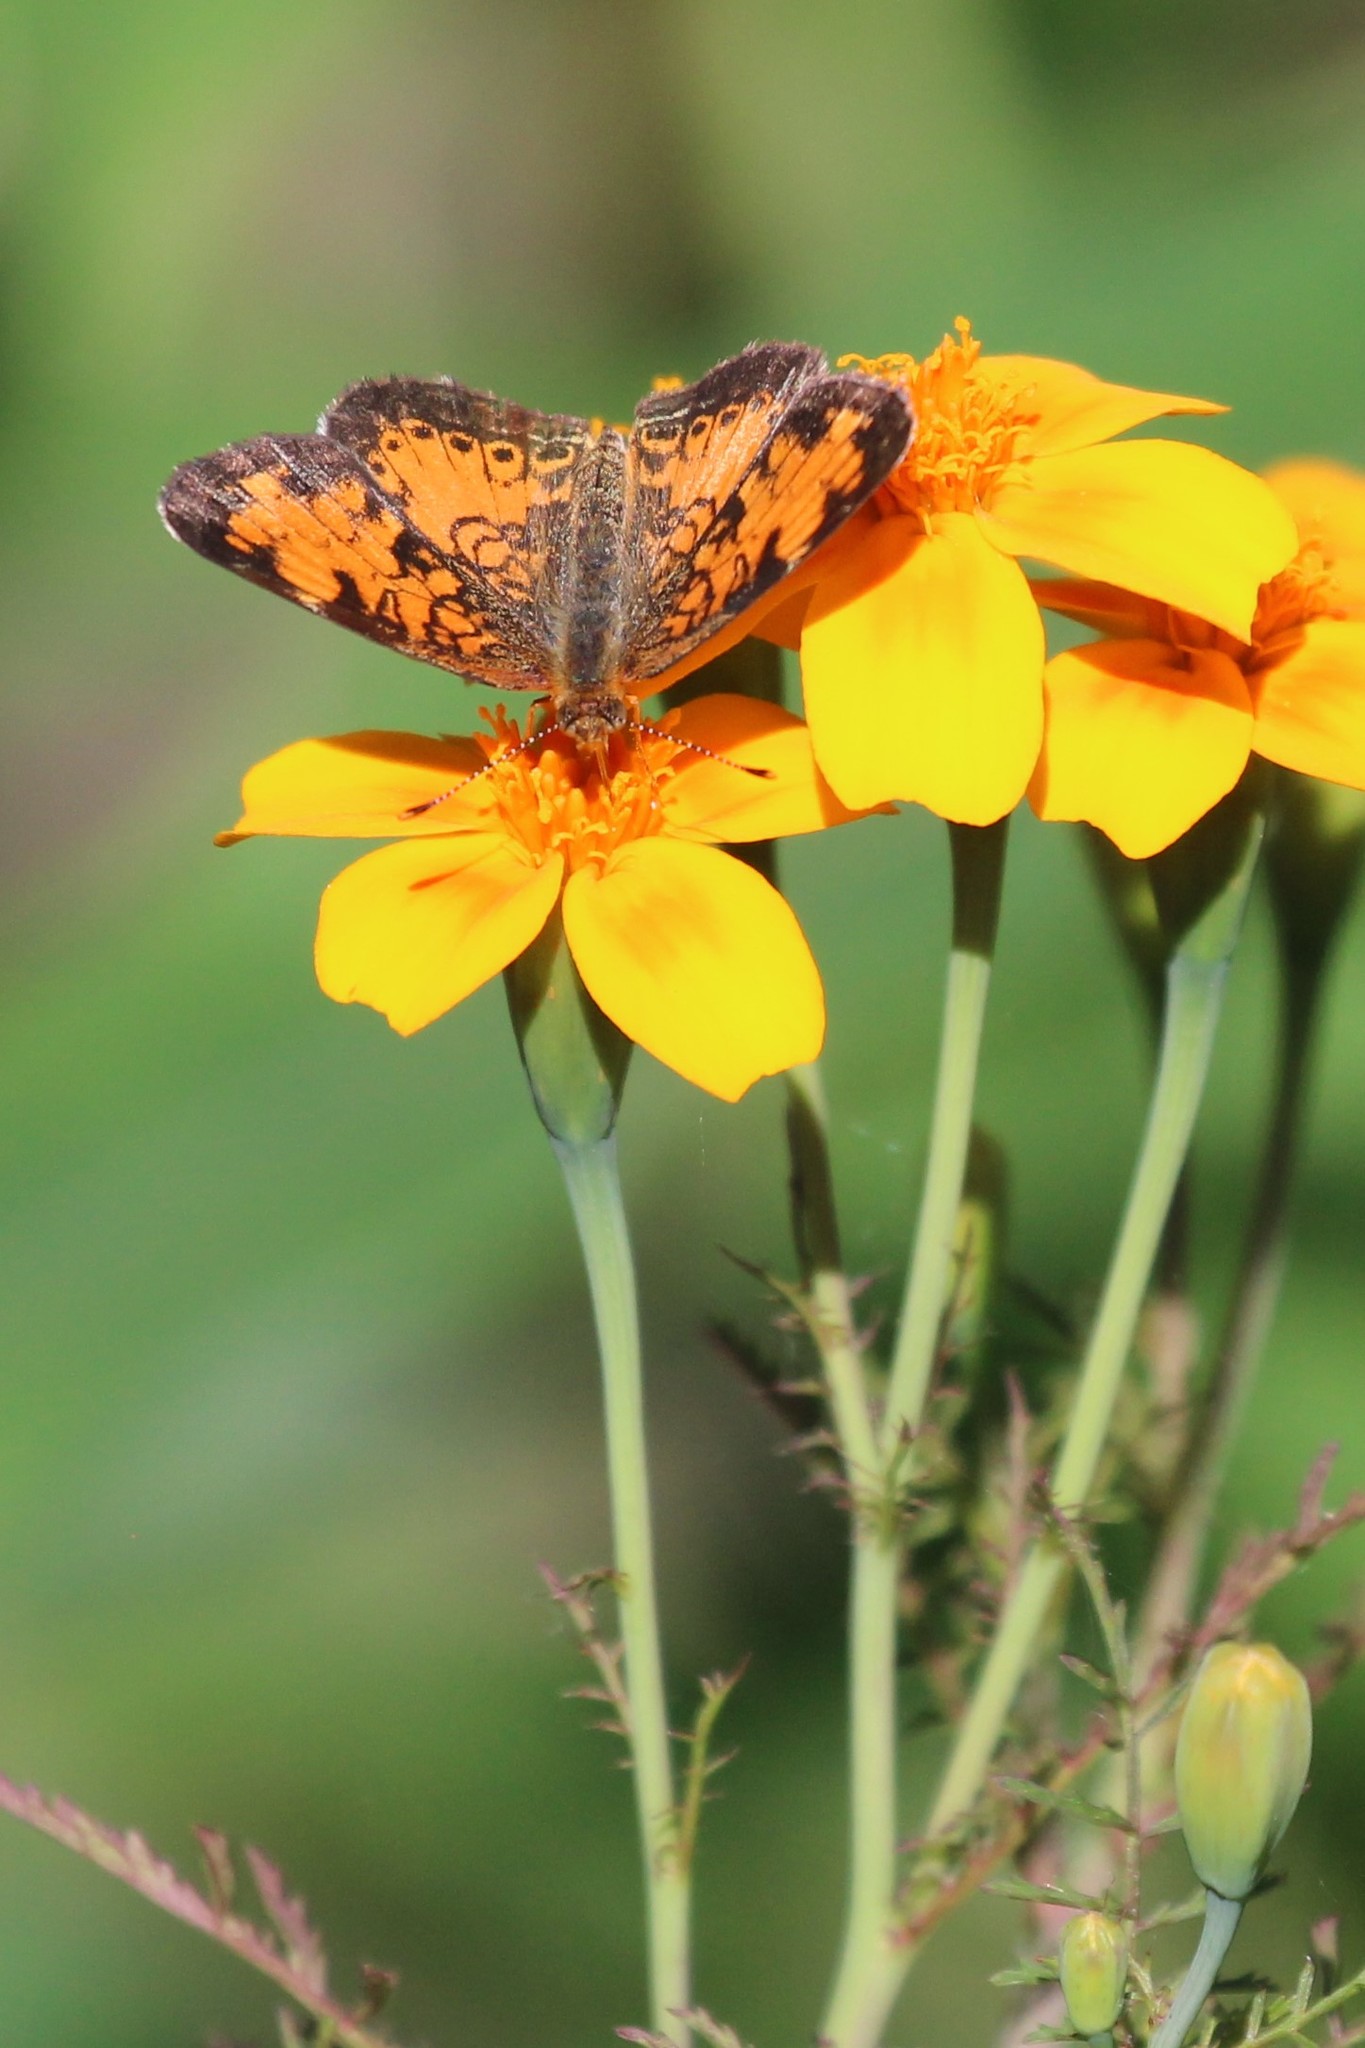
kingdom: Animalia
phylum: Arthropoda
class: Insecta
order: Lepidoptera
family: Nymphalidae
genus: Phyciodes
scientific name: Phyciodes tharos
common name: Pearl crescent
